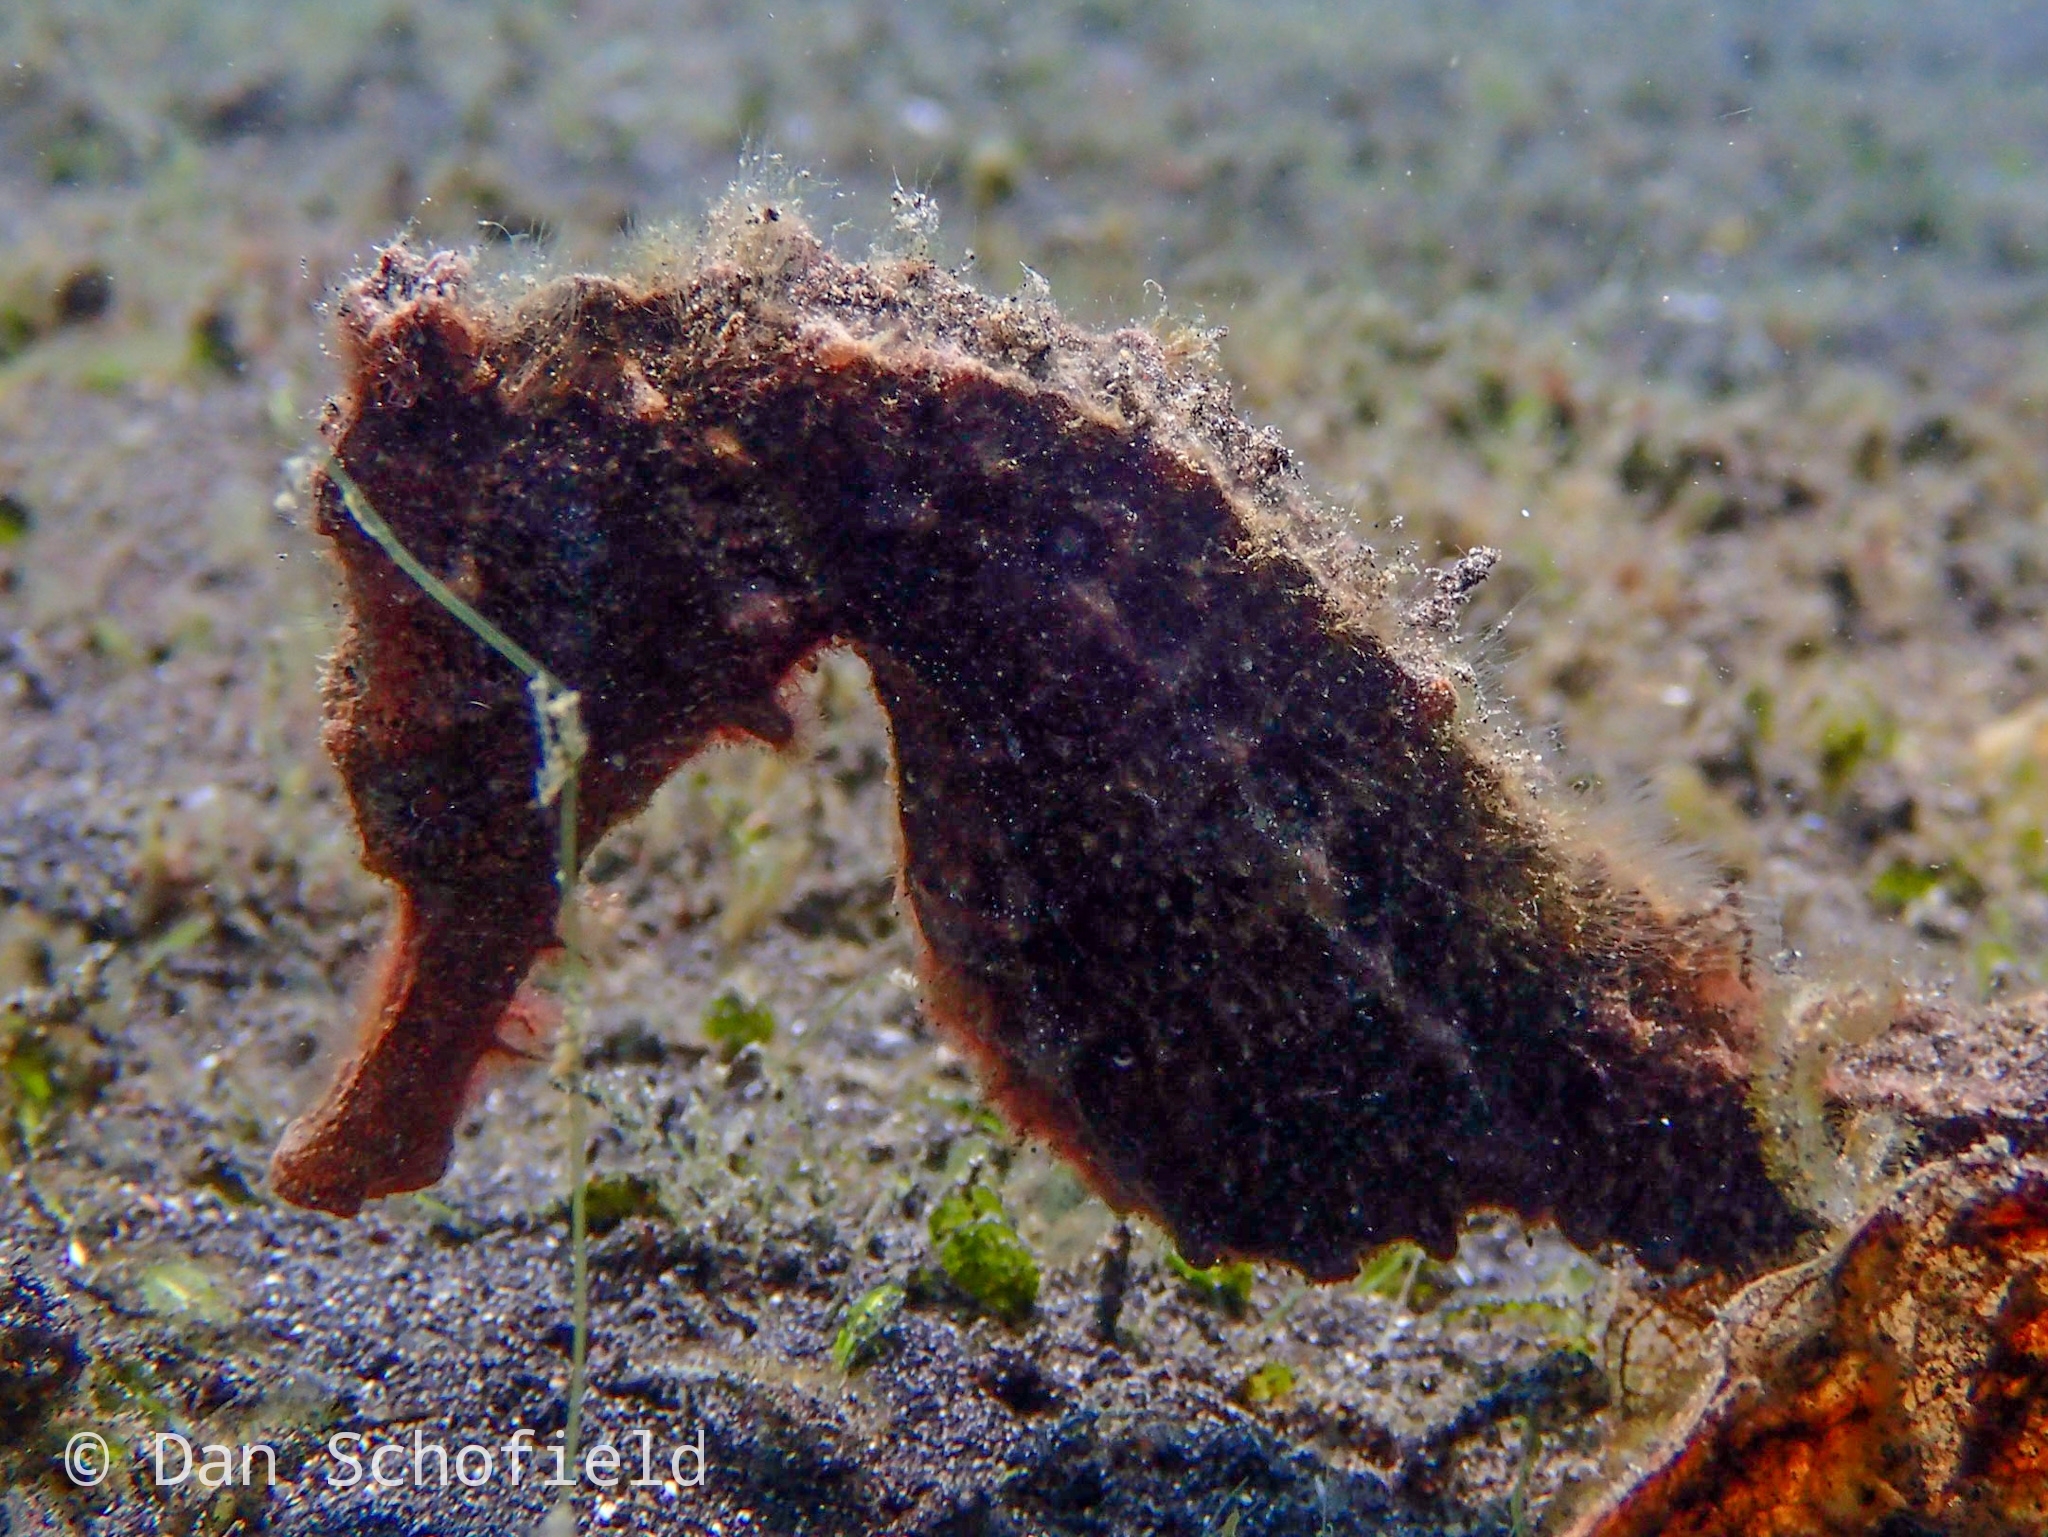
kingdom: Animalia
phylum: Chordata
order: Syngnathiformes
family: Syngnathidae
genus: Hippocampus
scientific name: Hippocampus kuda
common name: Spotted seahorse
